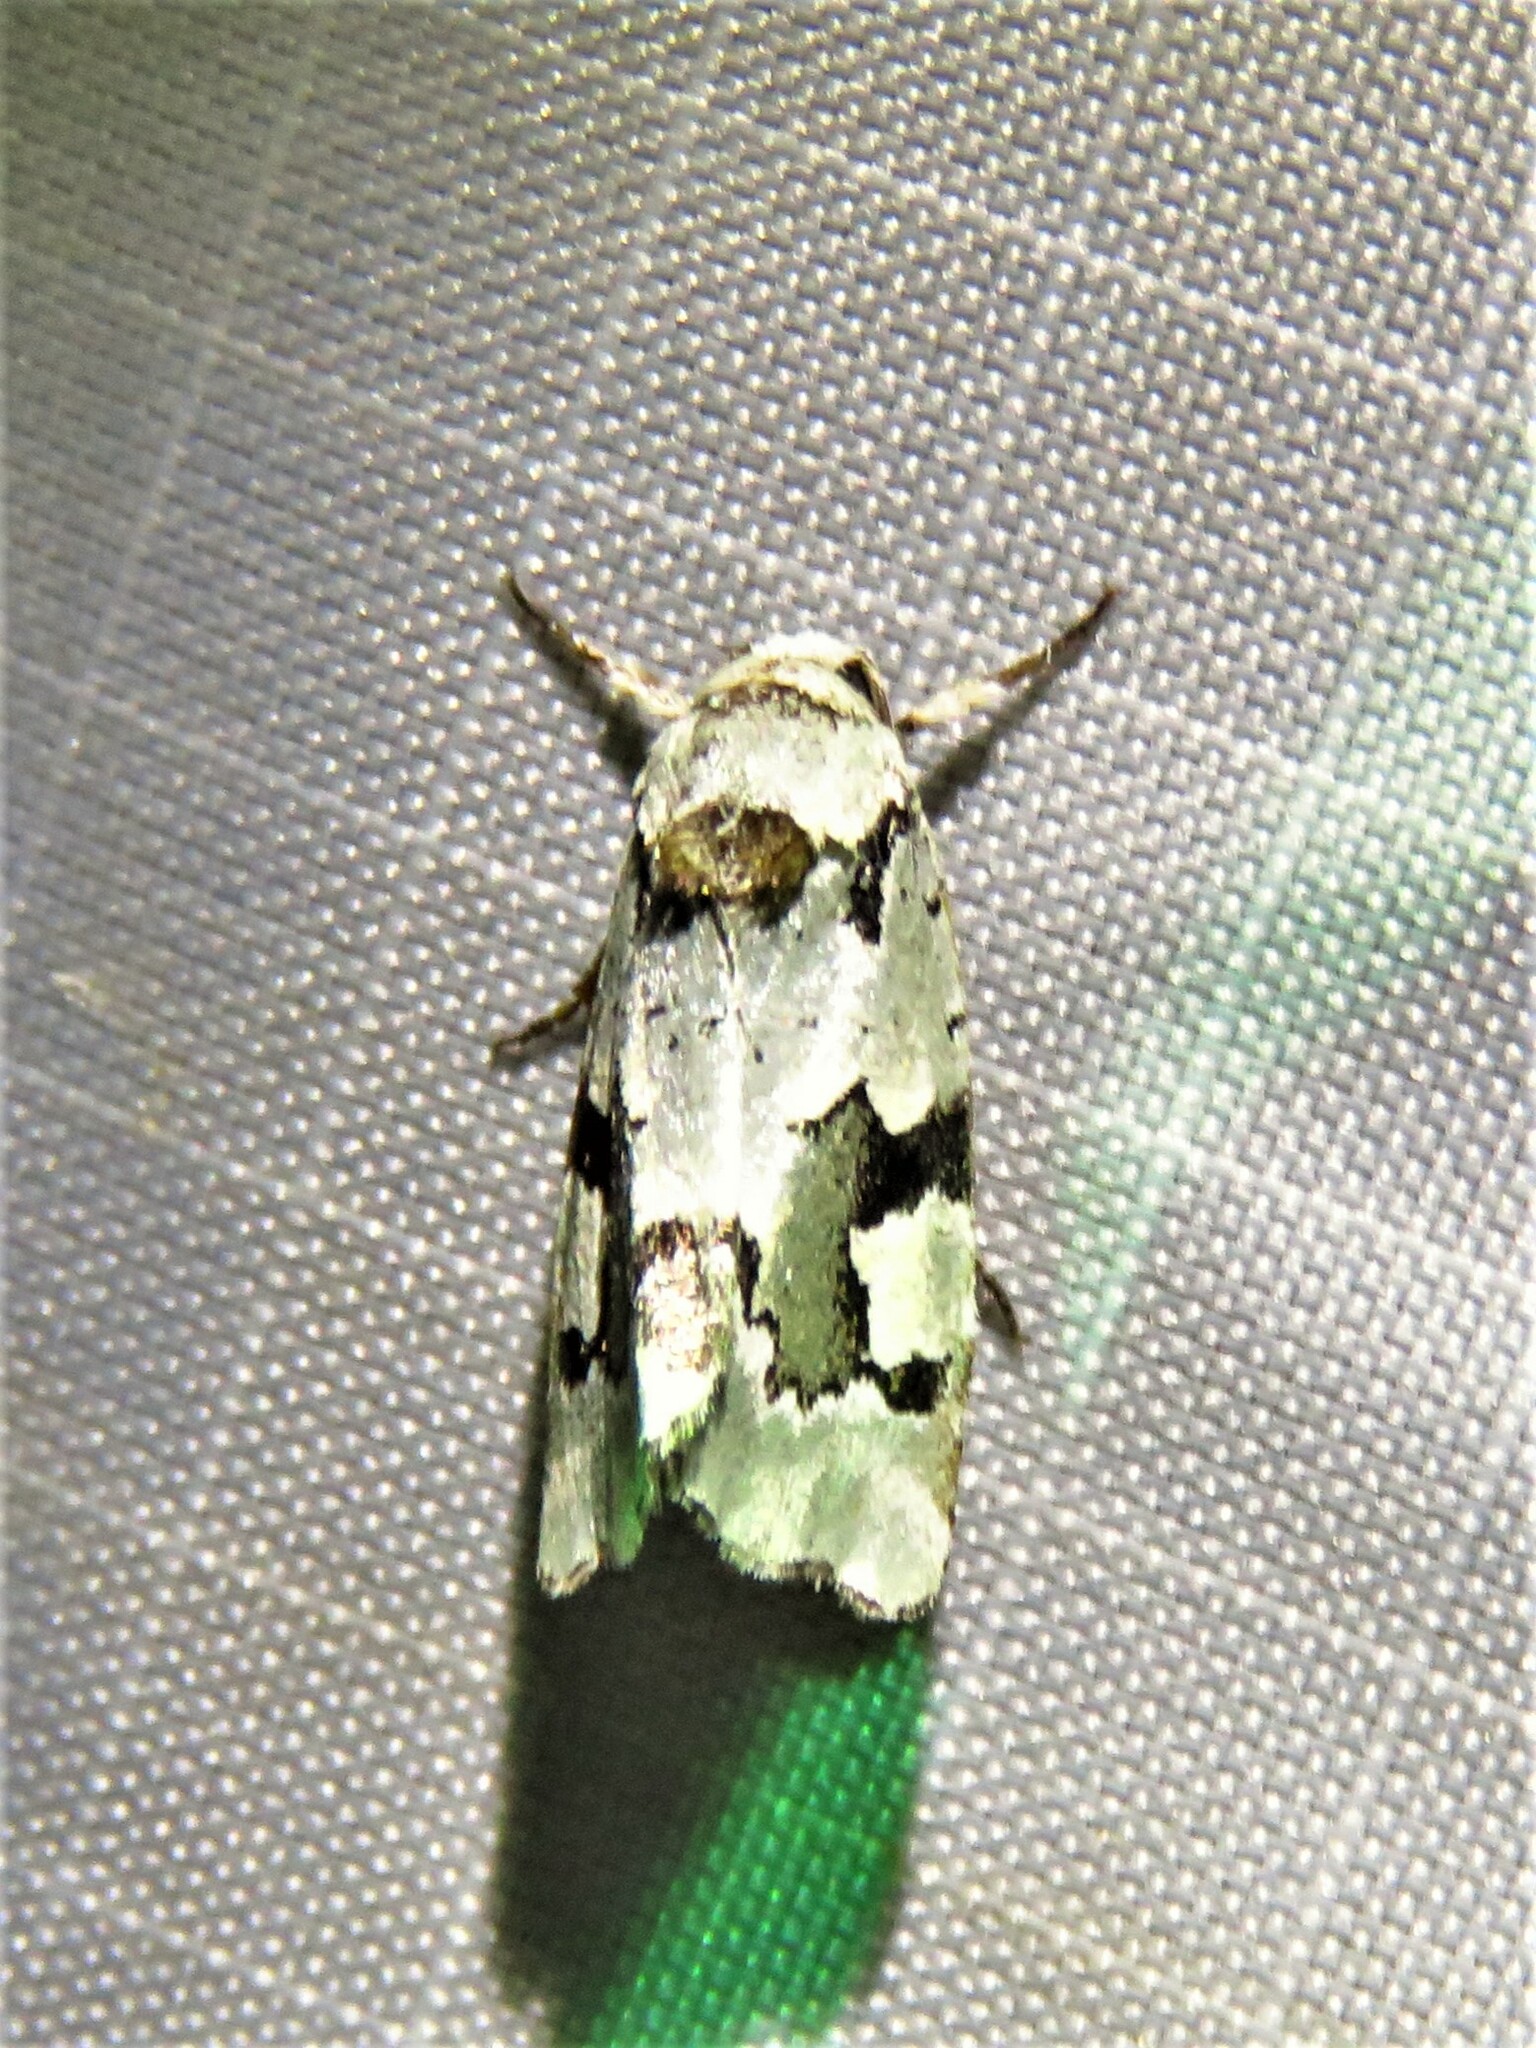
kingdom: Animalia
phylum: Arthropoda
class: Insecta
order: Lepidoptera
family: Noctuidae
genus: Emarginea
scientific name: Emarginea percara
